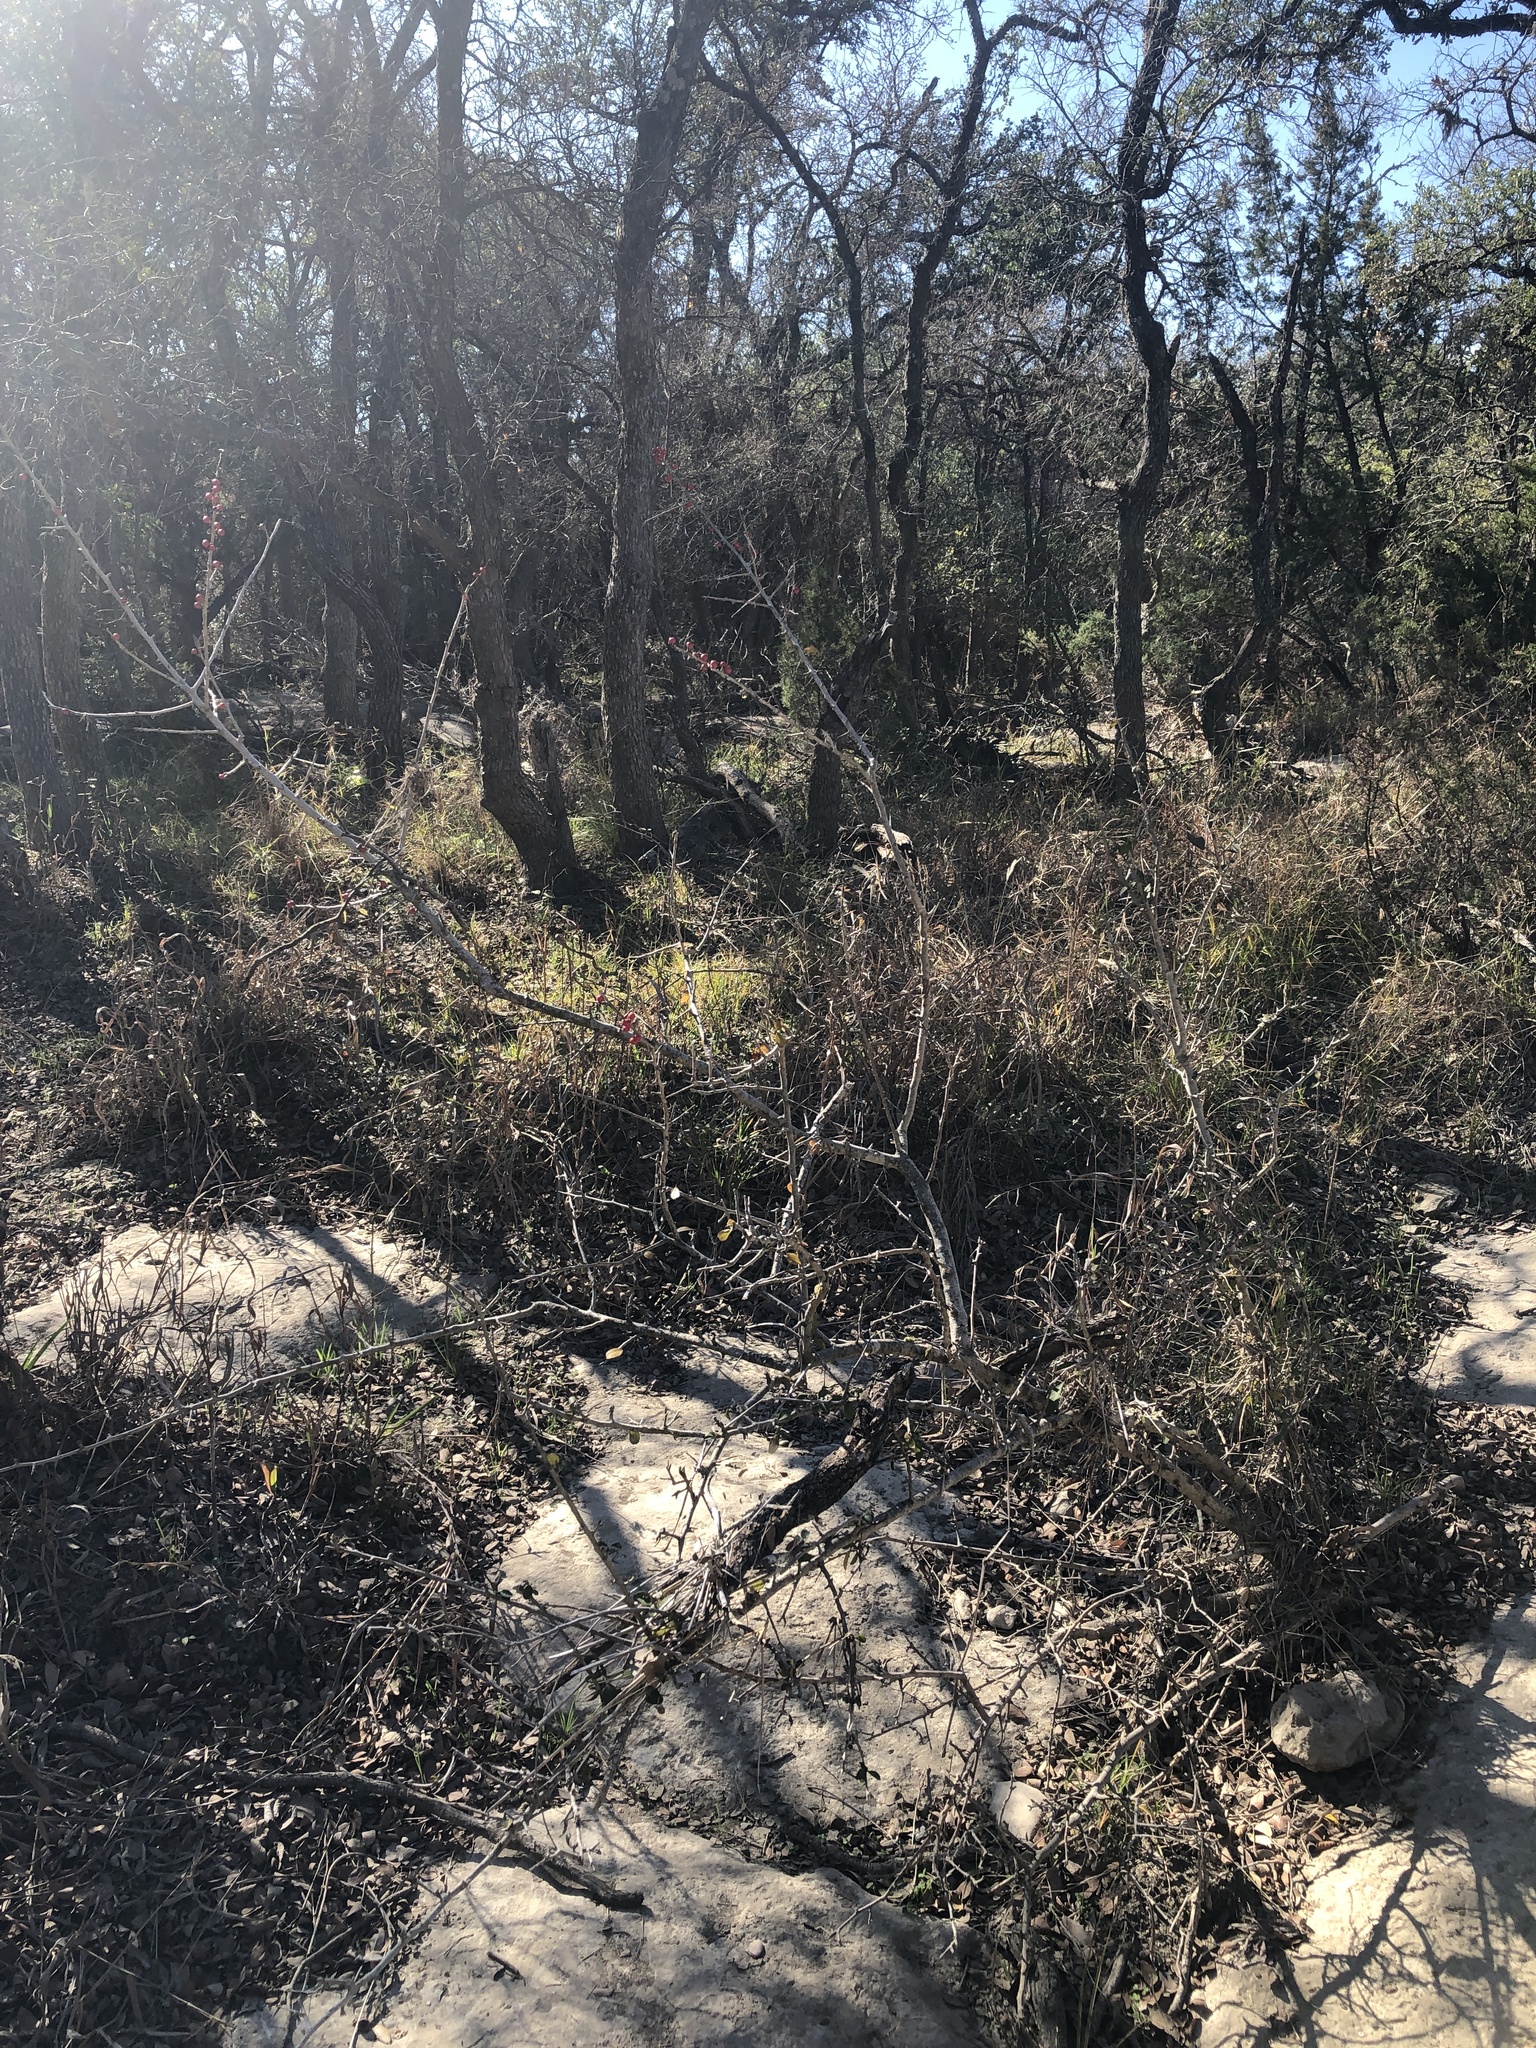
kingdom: Plantae
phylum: Tracheophyta
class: Magnoliopsida
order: Aquifoliales
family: Aquifoliaceae
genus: Ilex
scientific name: Ilex decidua
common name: Possum-haw
